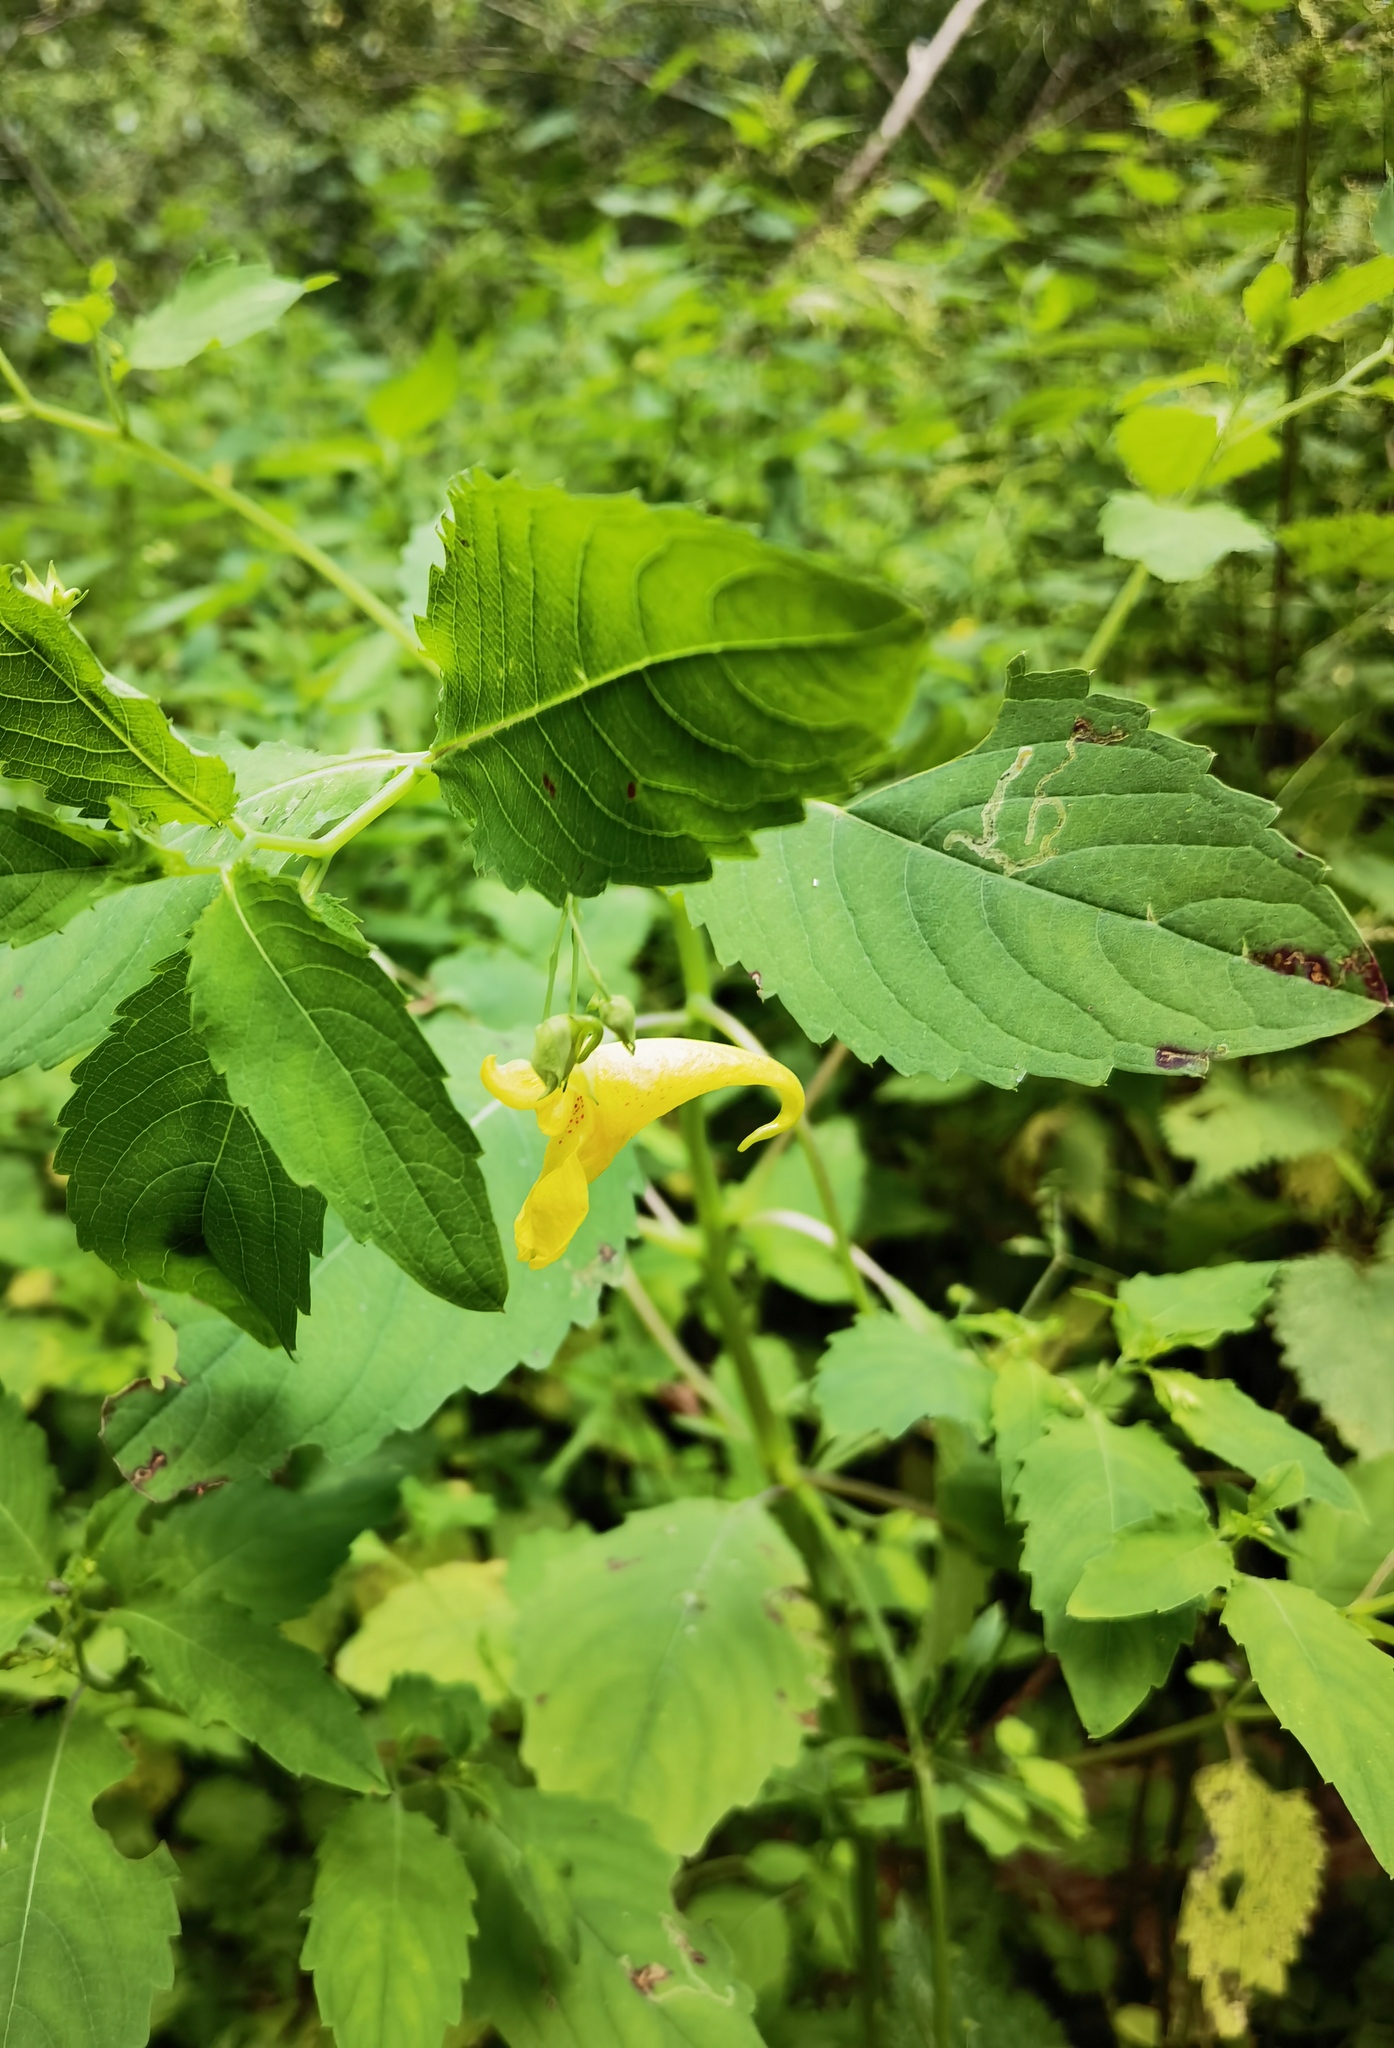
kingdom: Plantae
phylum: Tracheophyta
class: Magnoliopsida
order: Ericales
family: Balsaminaceae
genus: Impatiens
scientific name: Impatiens noli-tangere
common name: Touch-me-not balsam
